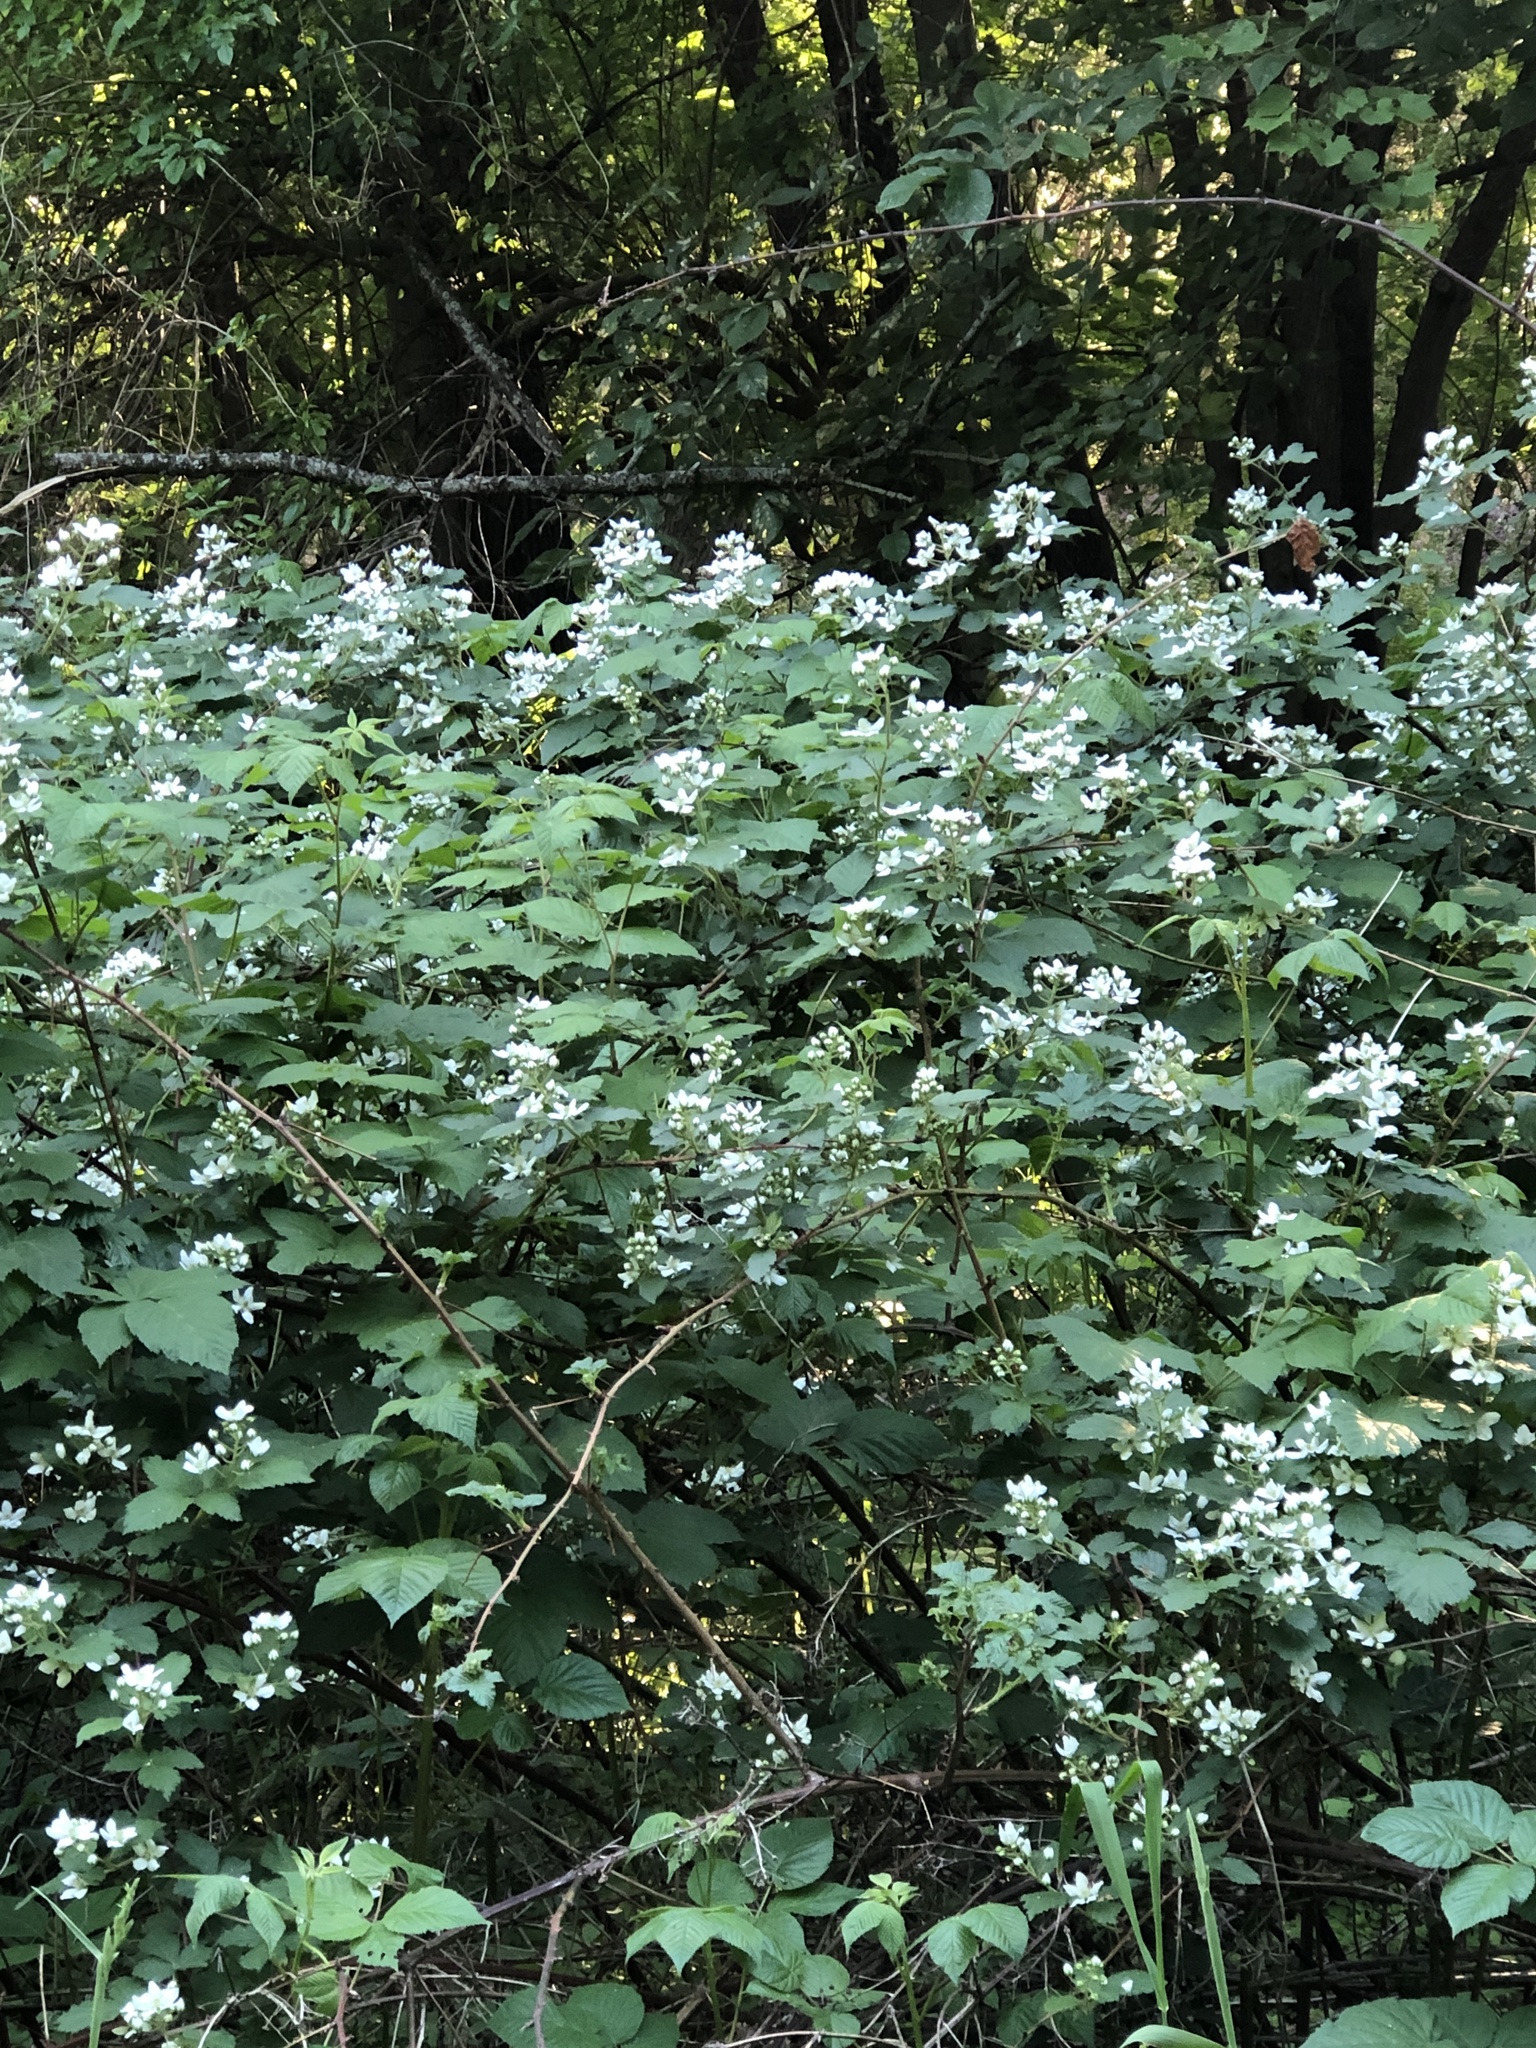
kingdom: Plantae
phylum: Tracheophyta
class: Magnoliopsida
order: Rosales
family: Rosaceae
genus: Rubus
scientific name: Rubus allegheniensis
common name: Allegheny blackberry
